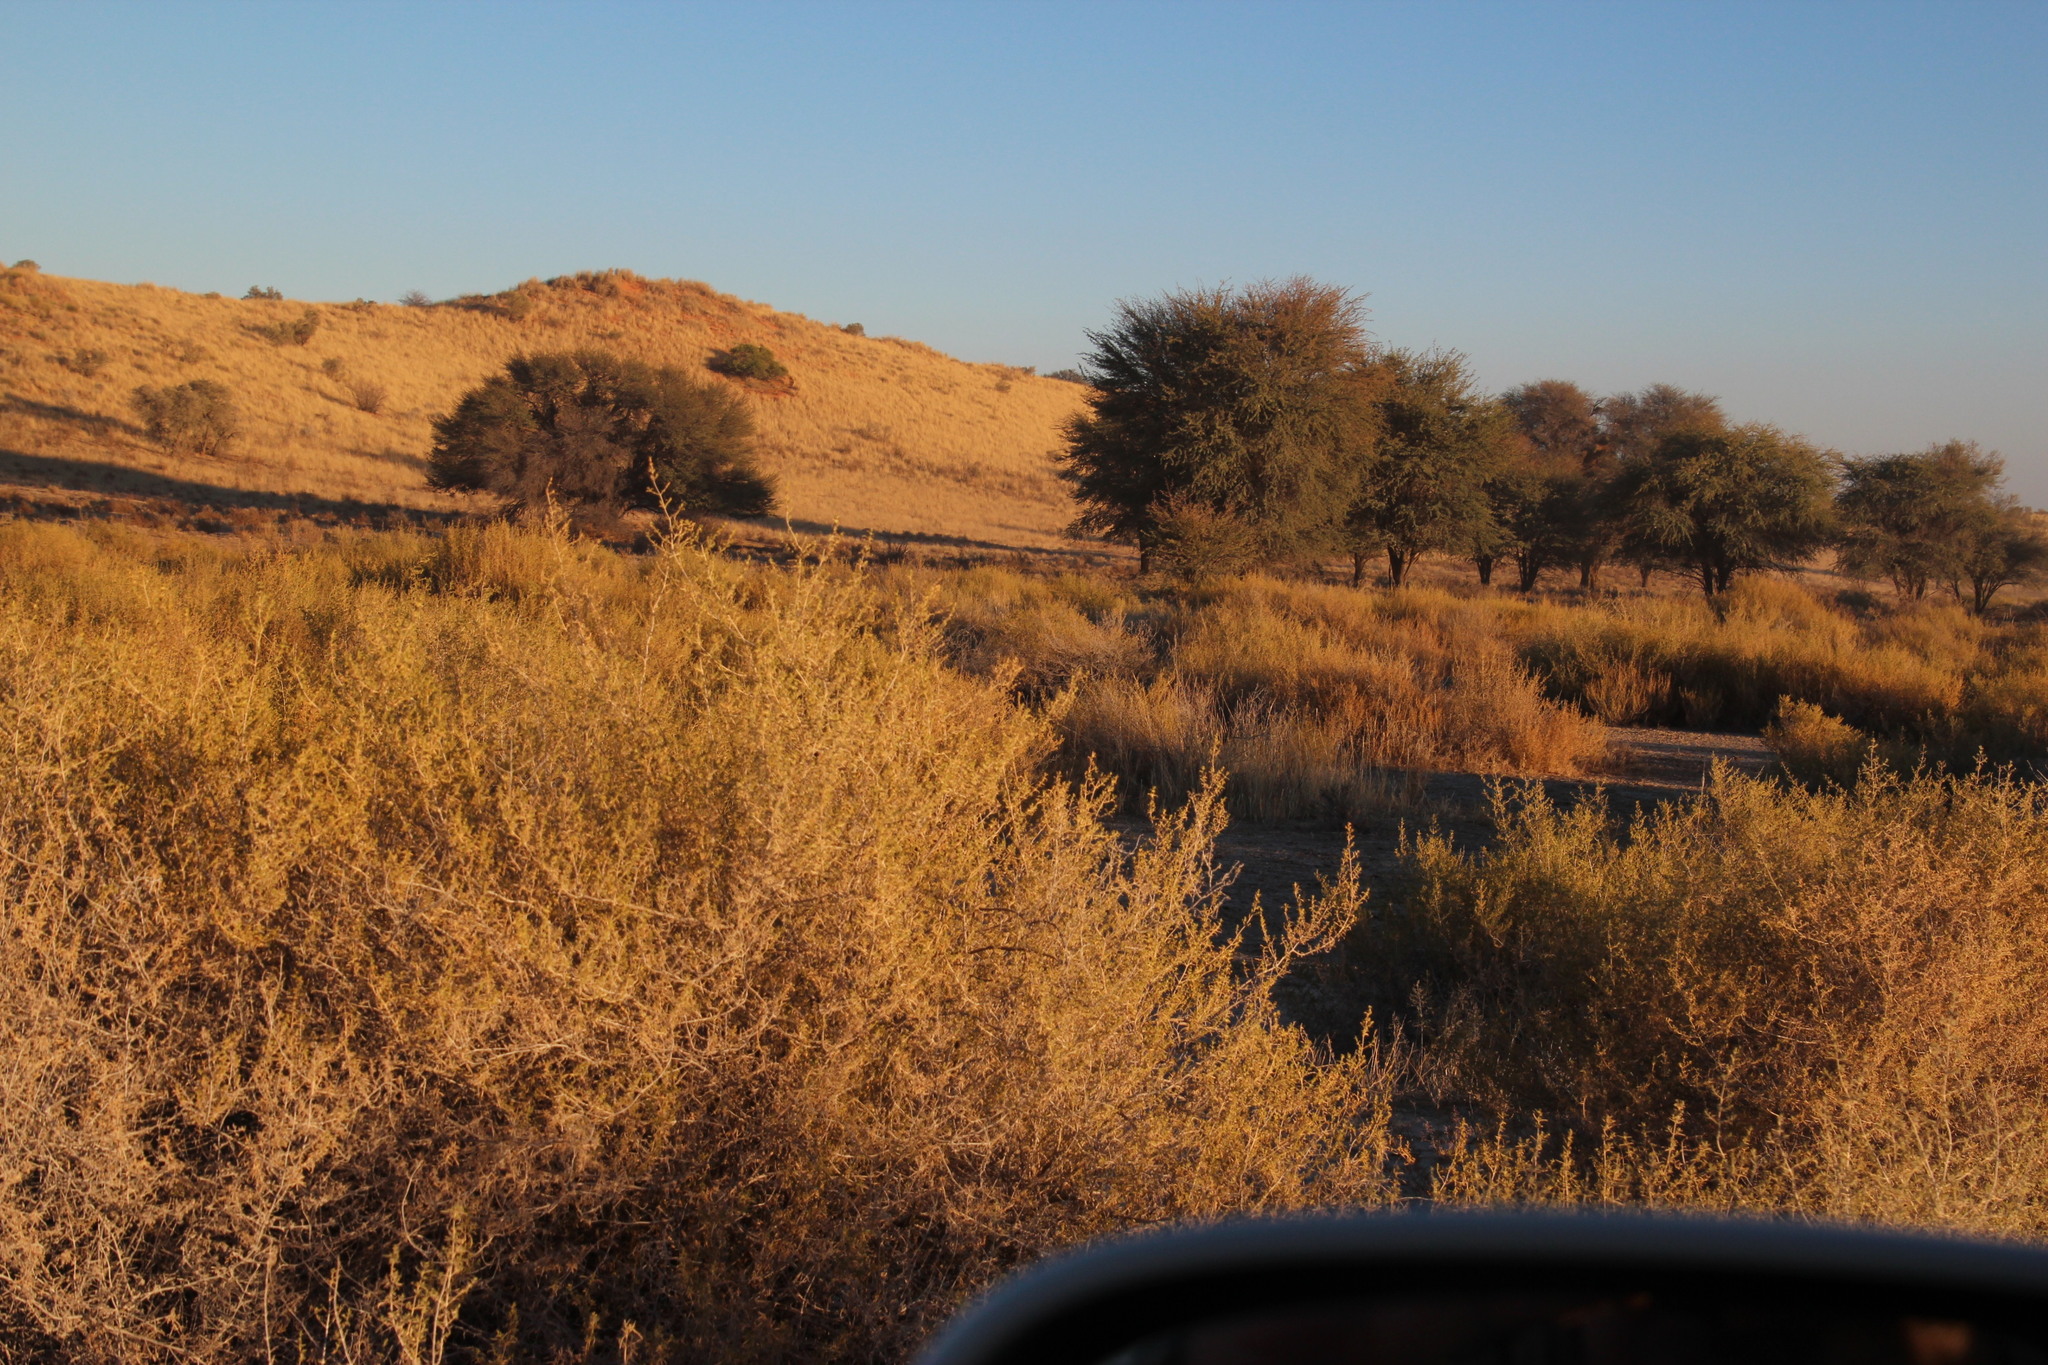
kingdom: Plantae
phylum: Tracheophyta
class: Magnoliopsida
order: Caryophyllales
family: Aizoaceae
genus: Aizoon
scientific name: Aizoon africanum
